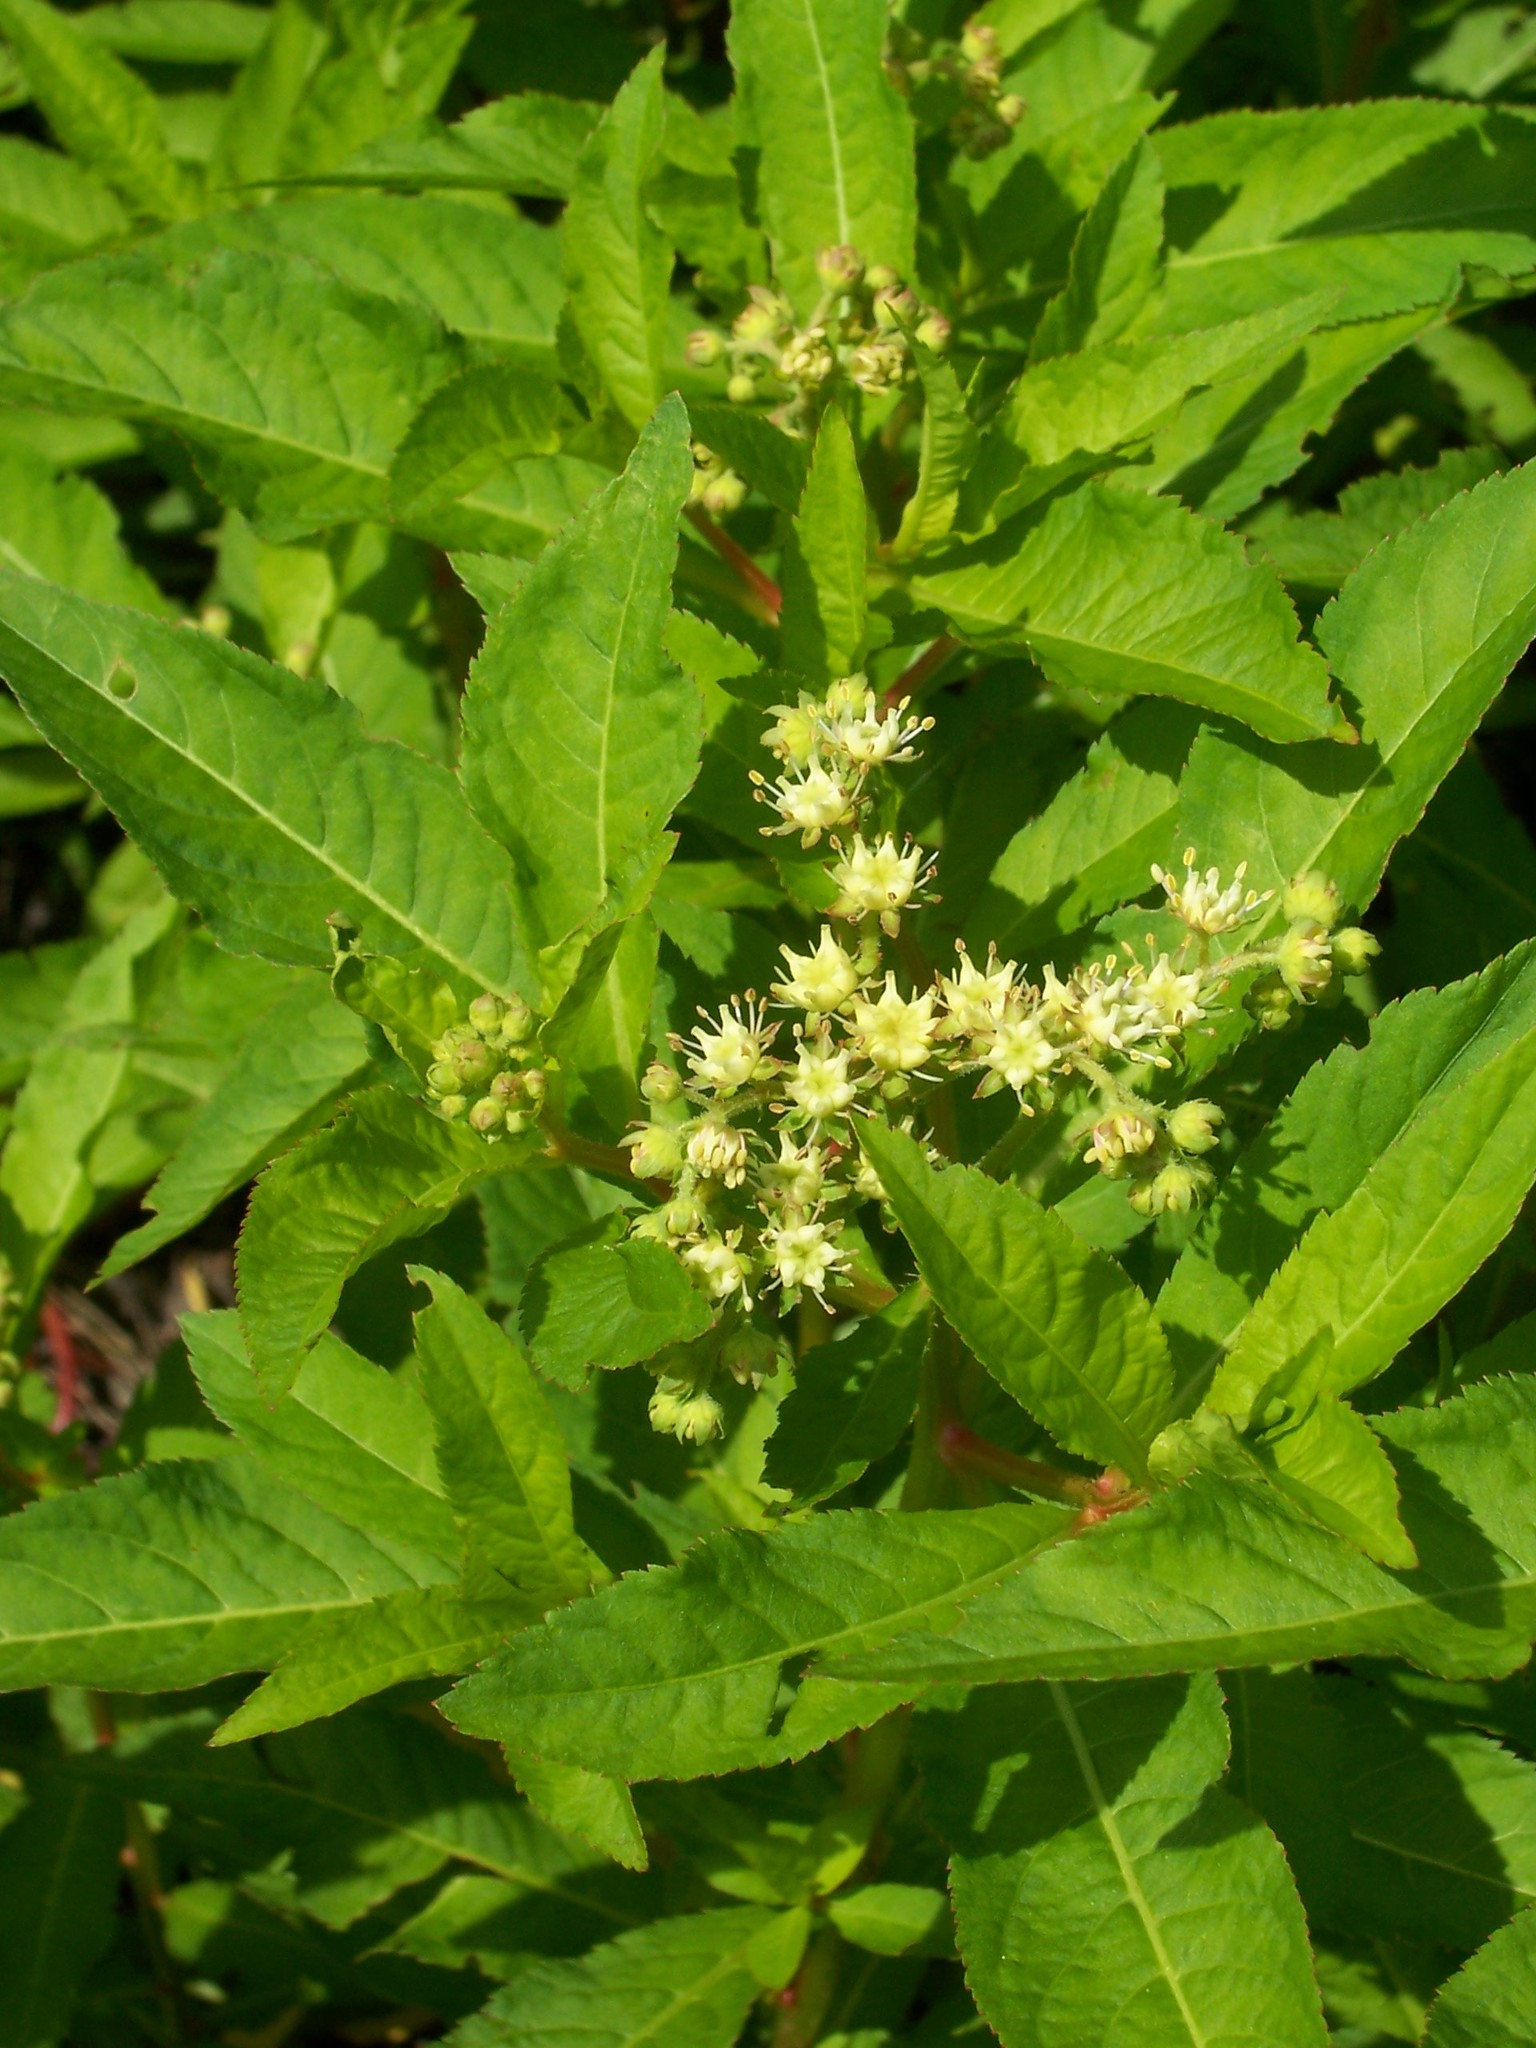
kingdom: Plantae
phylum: Tracheophyta
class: Magnoliopsida
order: Saxifragales
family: Penthoraceae
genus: Penthorum
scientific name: Penthorum sedoides
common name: Ditch stonecrop
